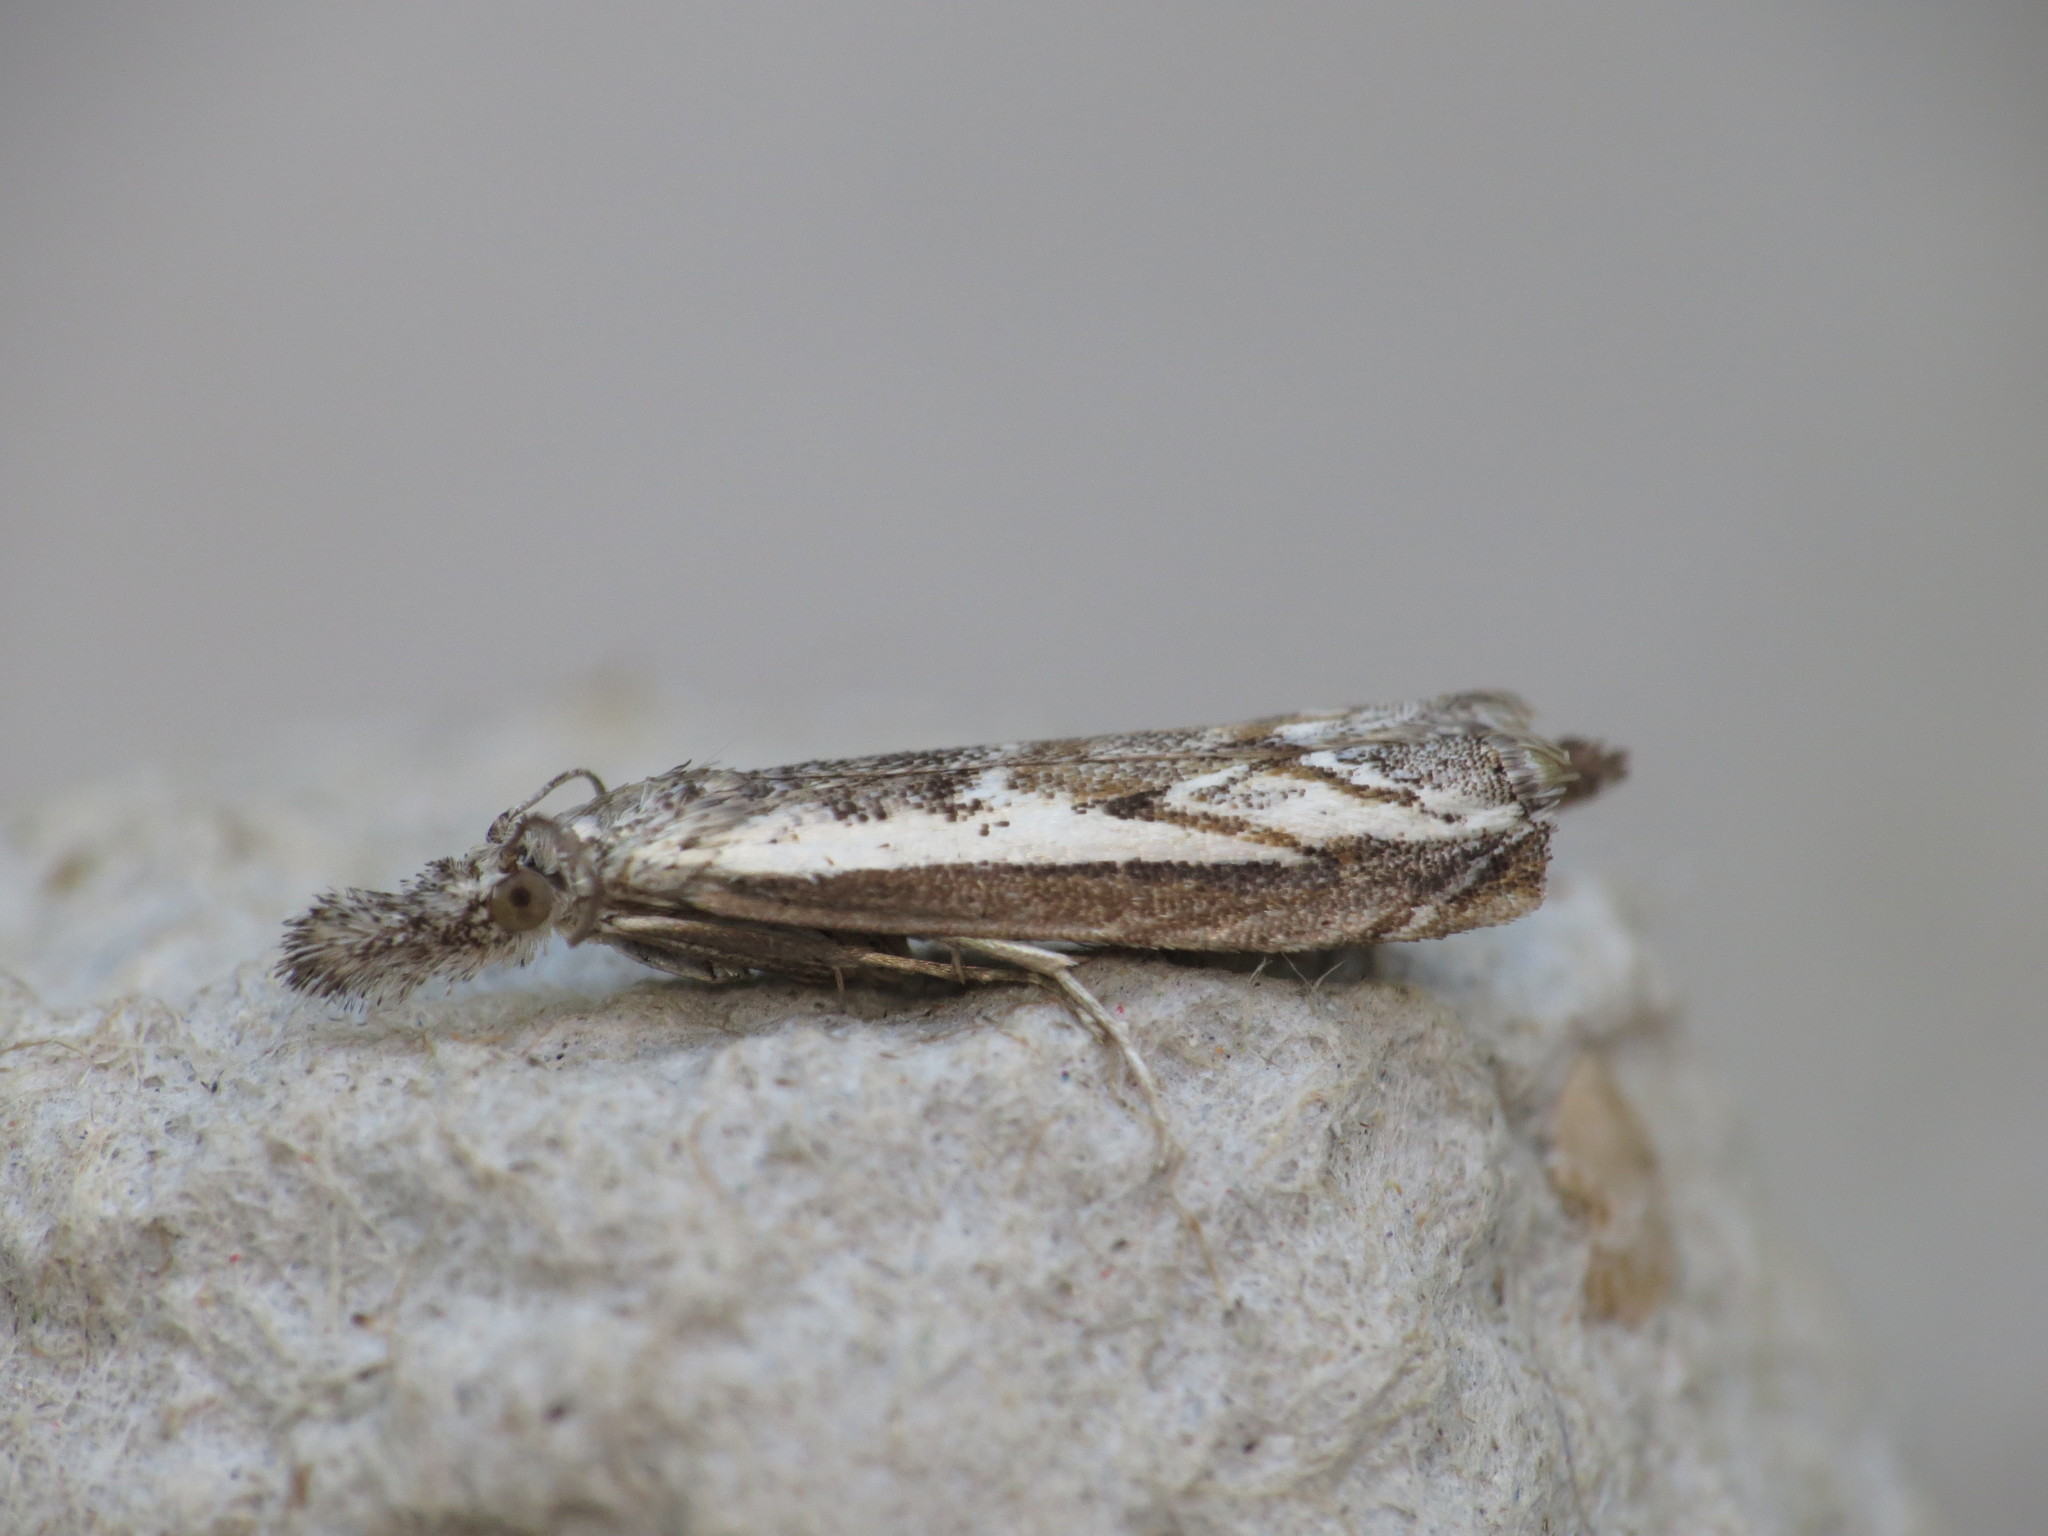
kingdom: Animalia
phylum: Arthropoda
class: Insecta
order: Lepidoptera
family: Crambidae
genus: Platytes
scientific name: Platytes alpinella
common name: Hook-tipped grass-veneer
